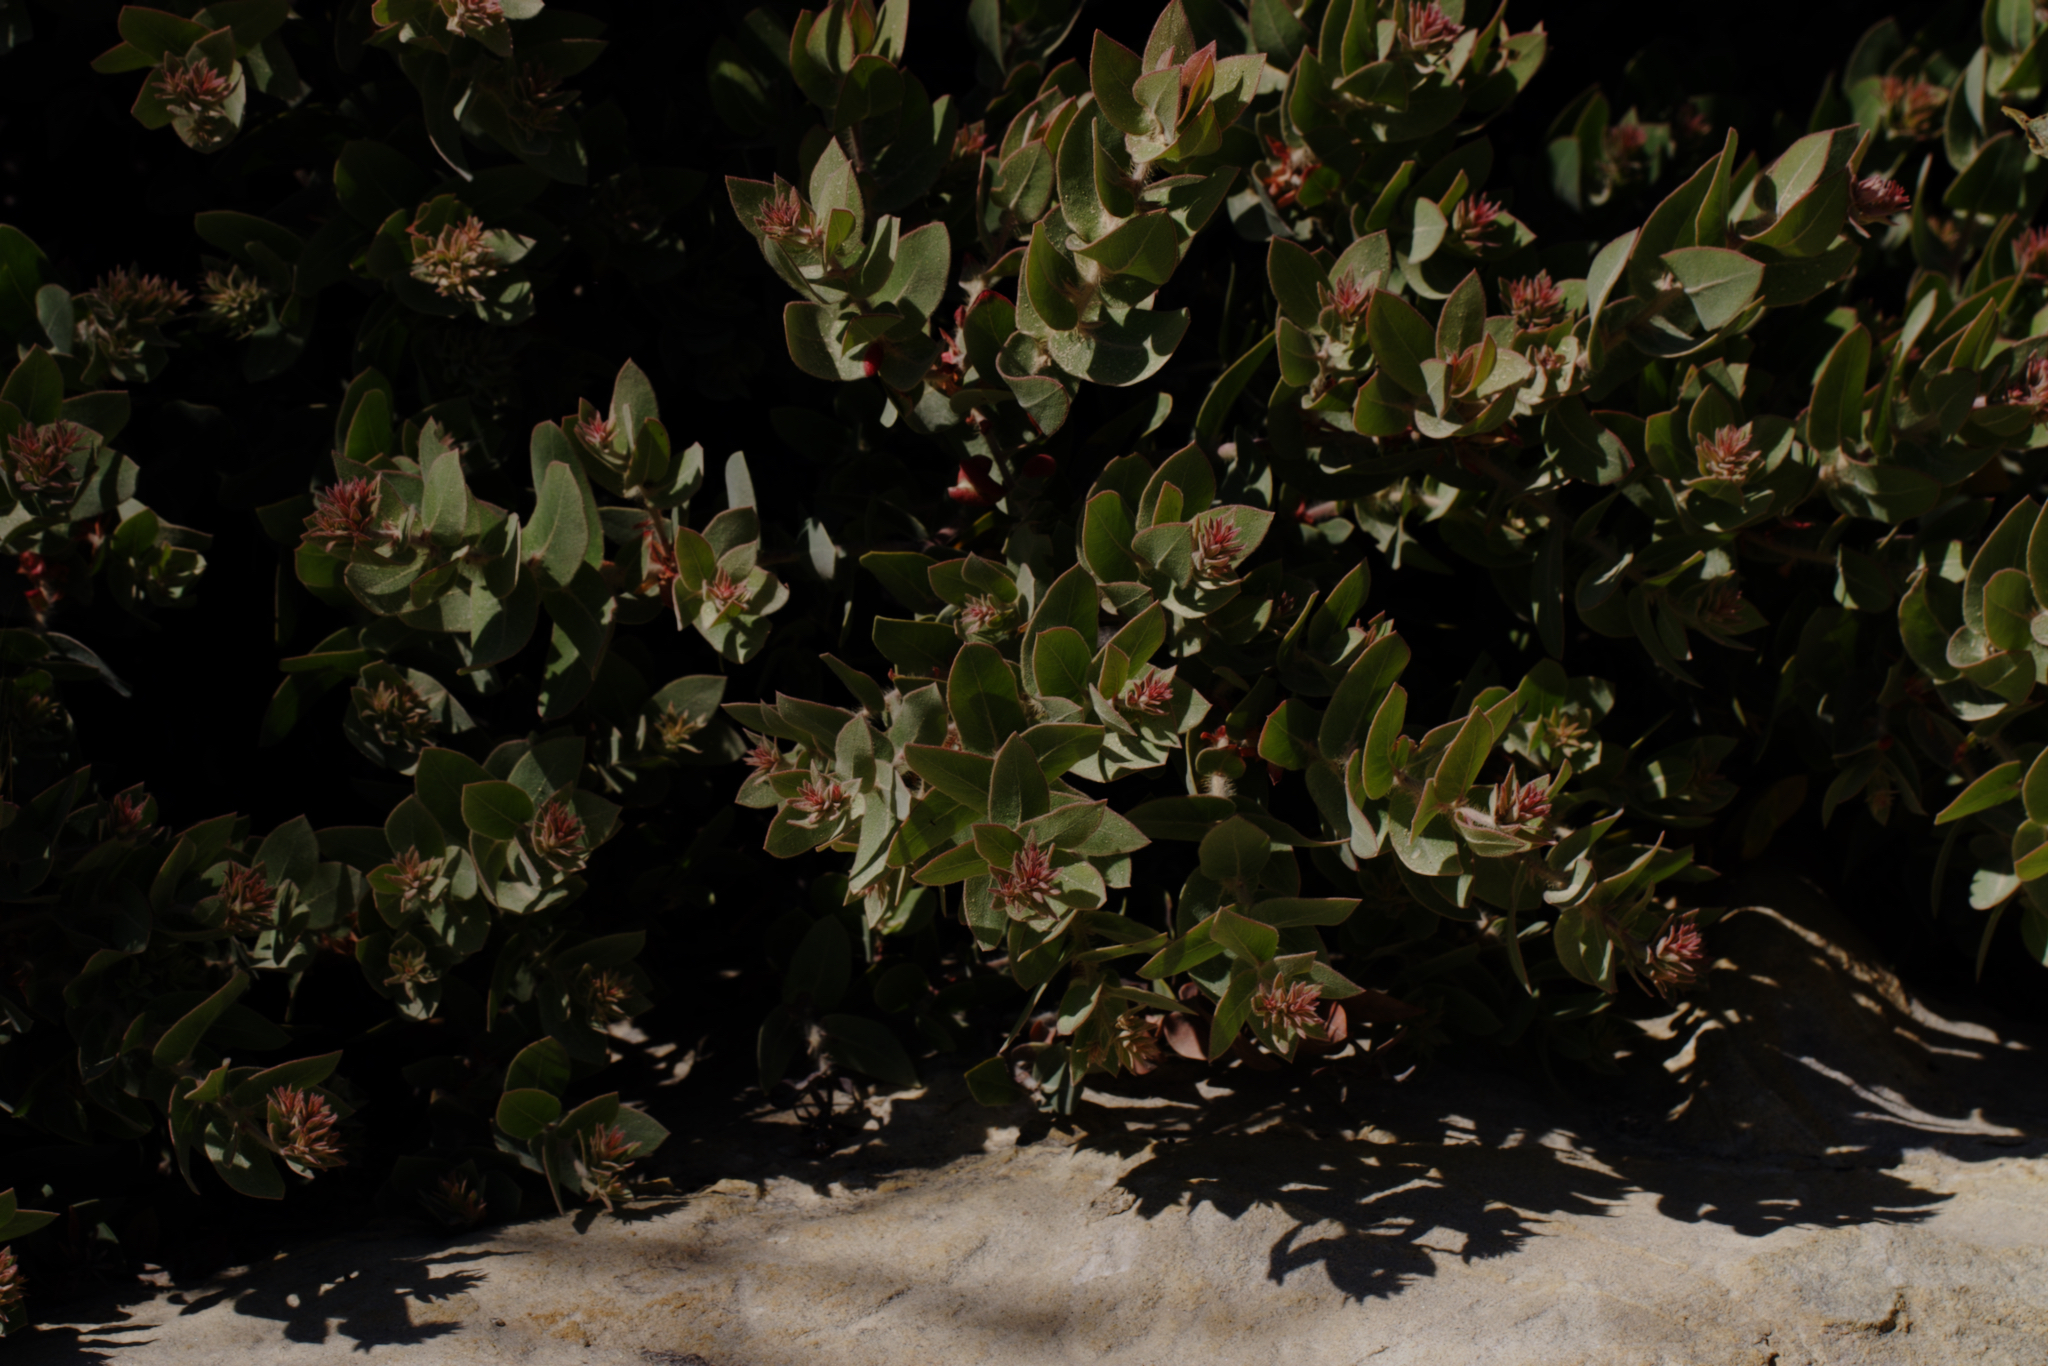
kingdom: Plantae
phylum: Tracheophyta
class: Magnoliopsida
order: Ericales
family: Ericaceae
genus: Arctostaphylos
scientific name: Arctostaphylos auriculata
